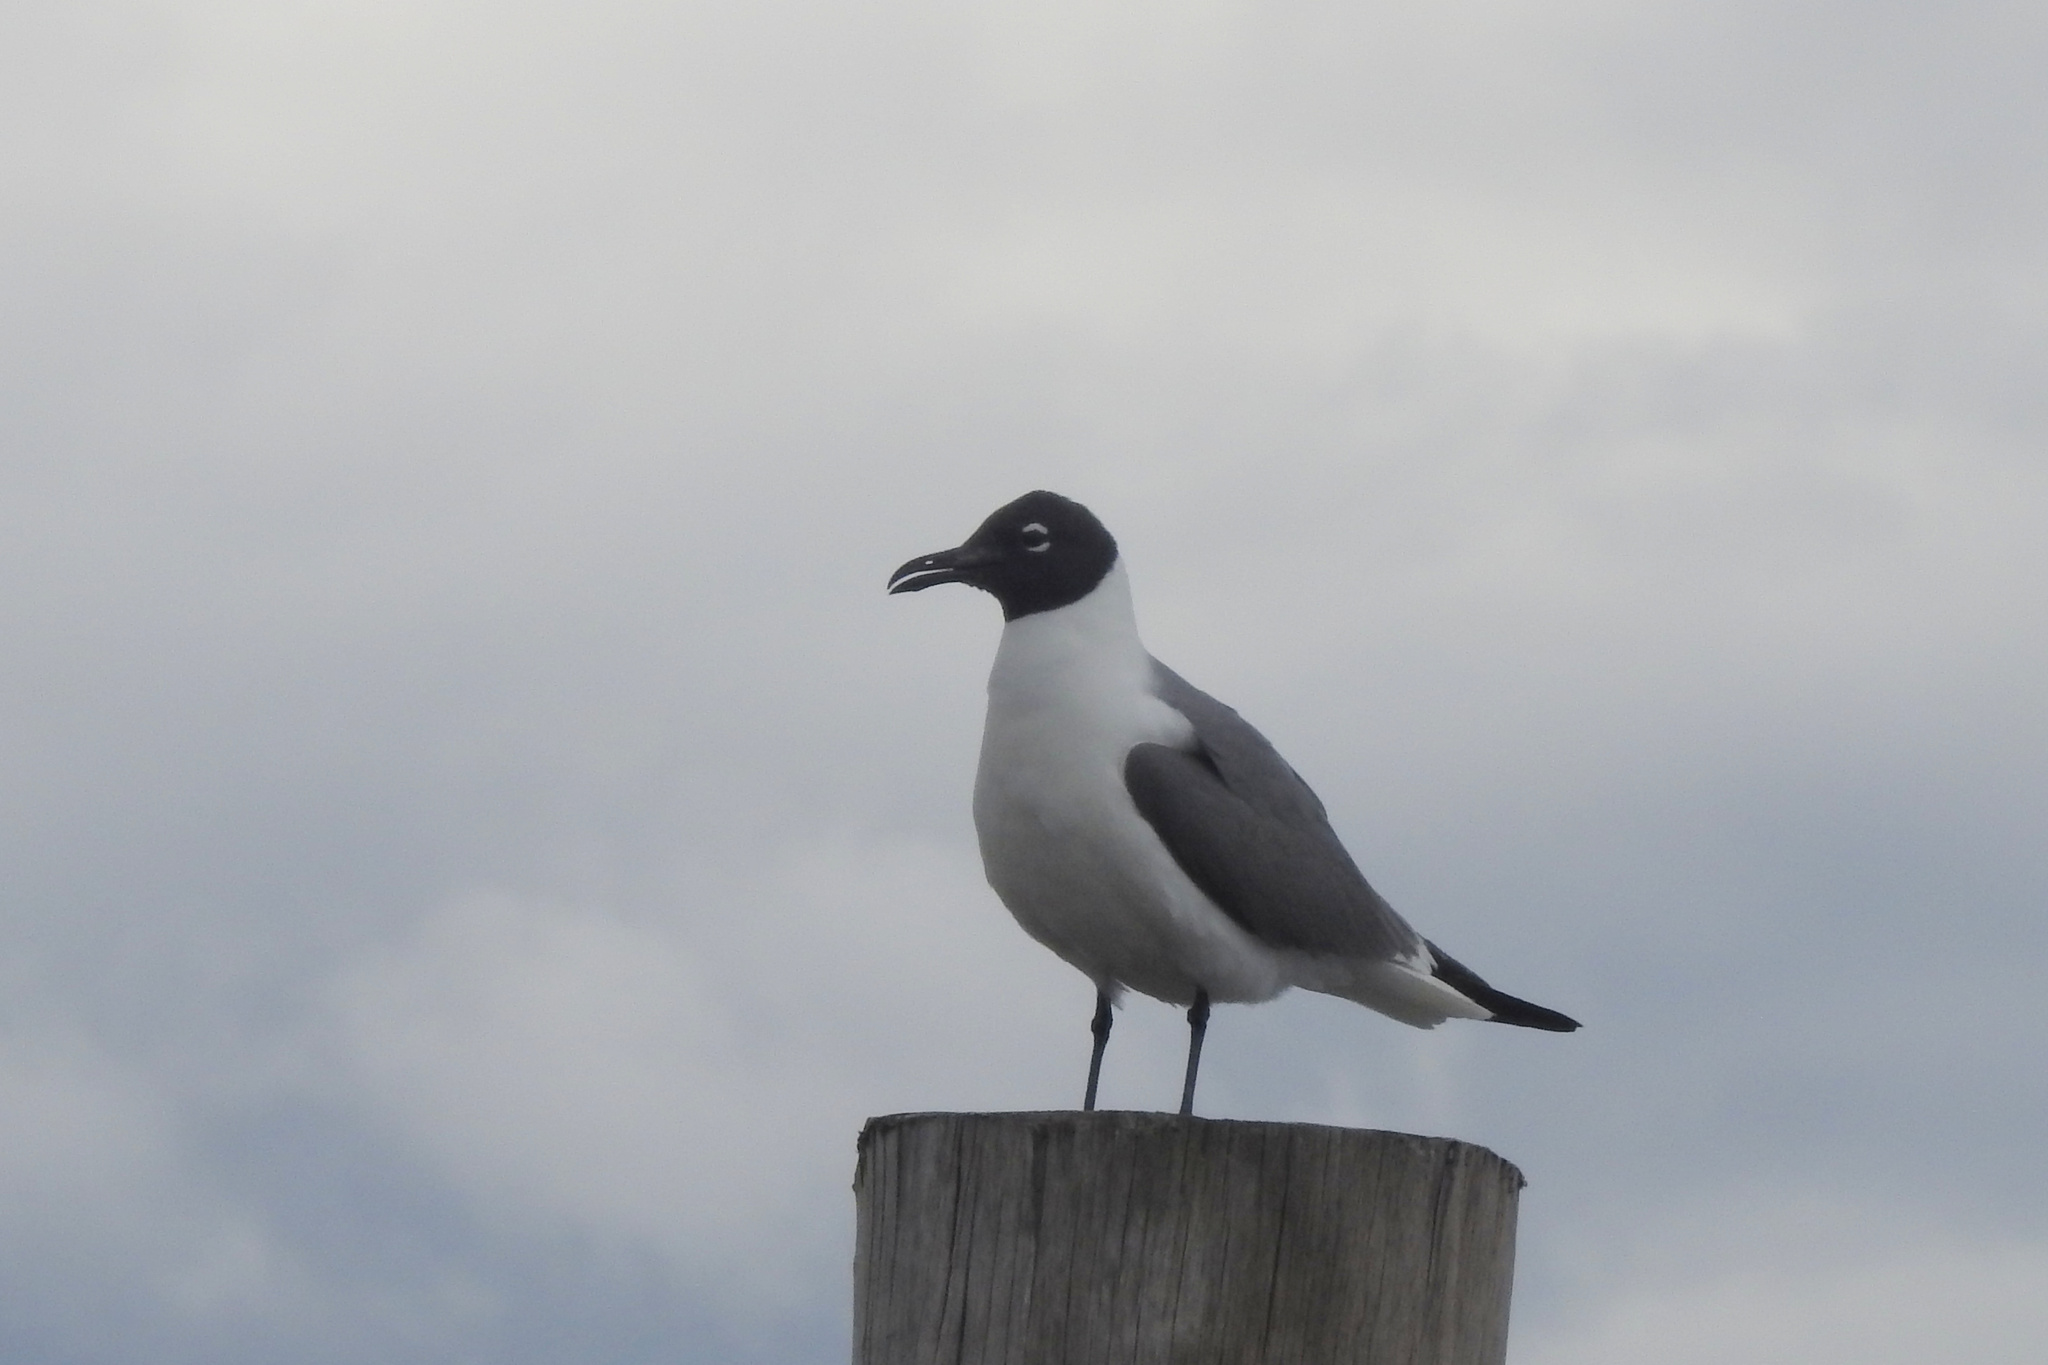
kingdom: Animalia
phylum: Chordata
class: Aves
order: Charadriiformes
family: Laridae
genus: Leucophaeus
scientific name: Leucophaeus atricilla
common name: Laughing gull
